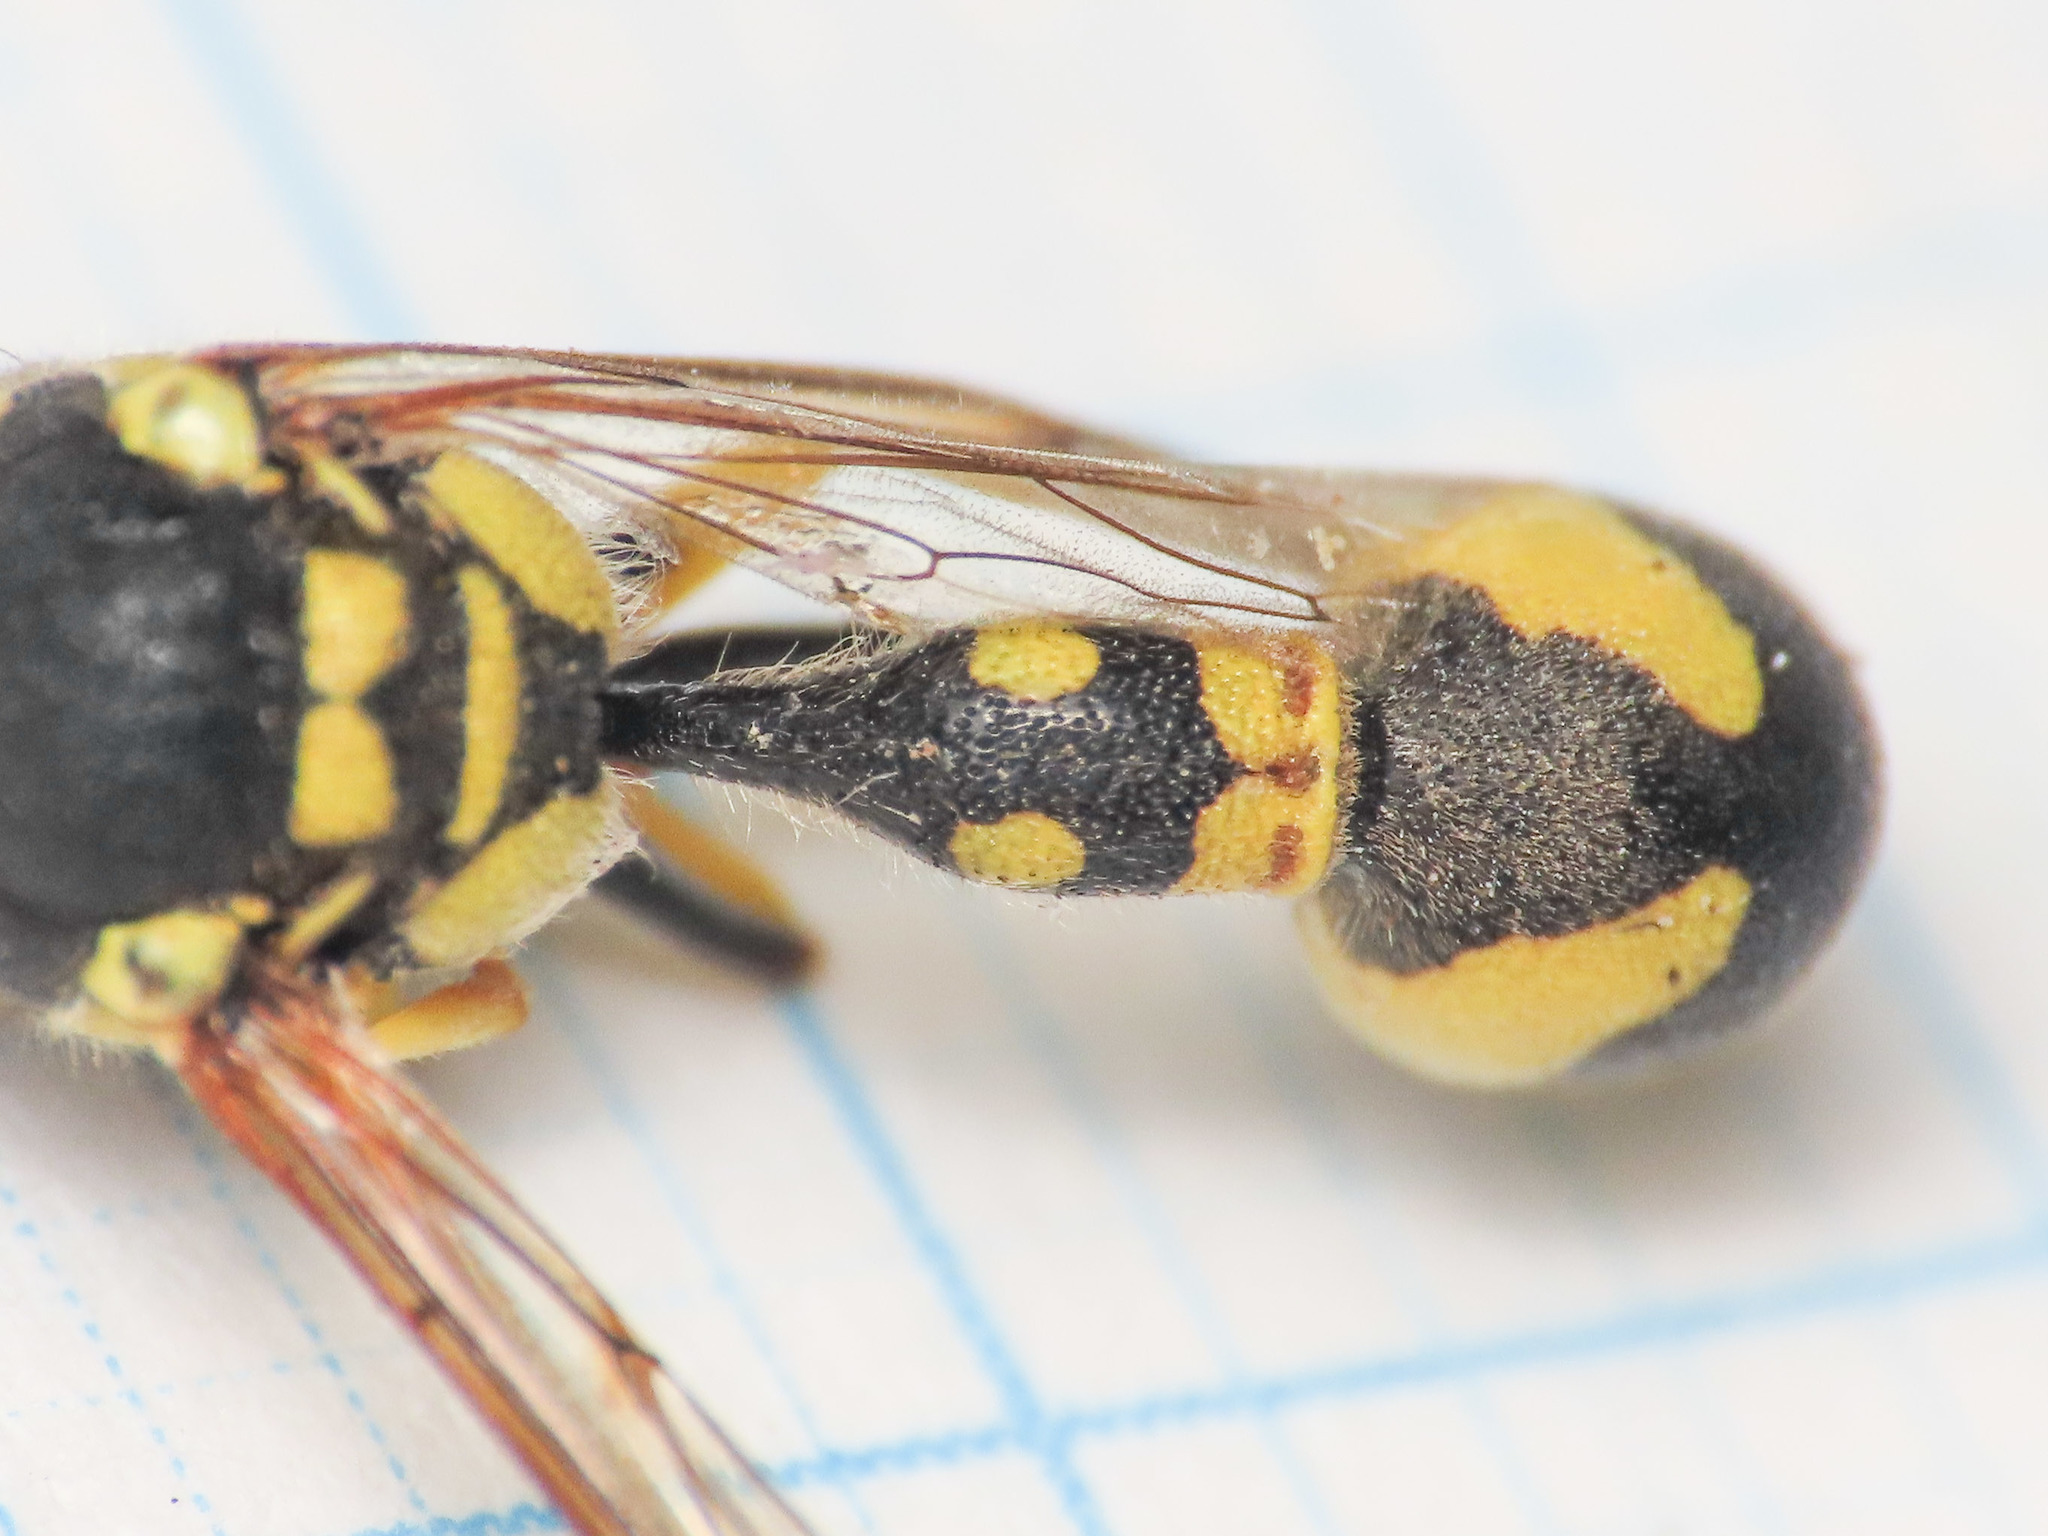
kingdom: Animalia
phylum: Arthropoda
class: Insecta
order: Hymenoptera
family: Vespidae
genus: Eumenes
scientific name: Eumenes mediterraneus
